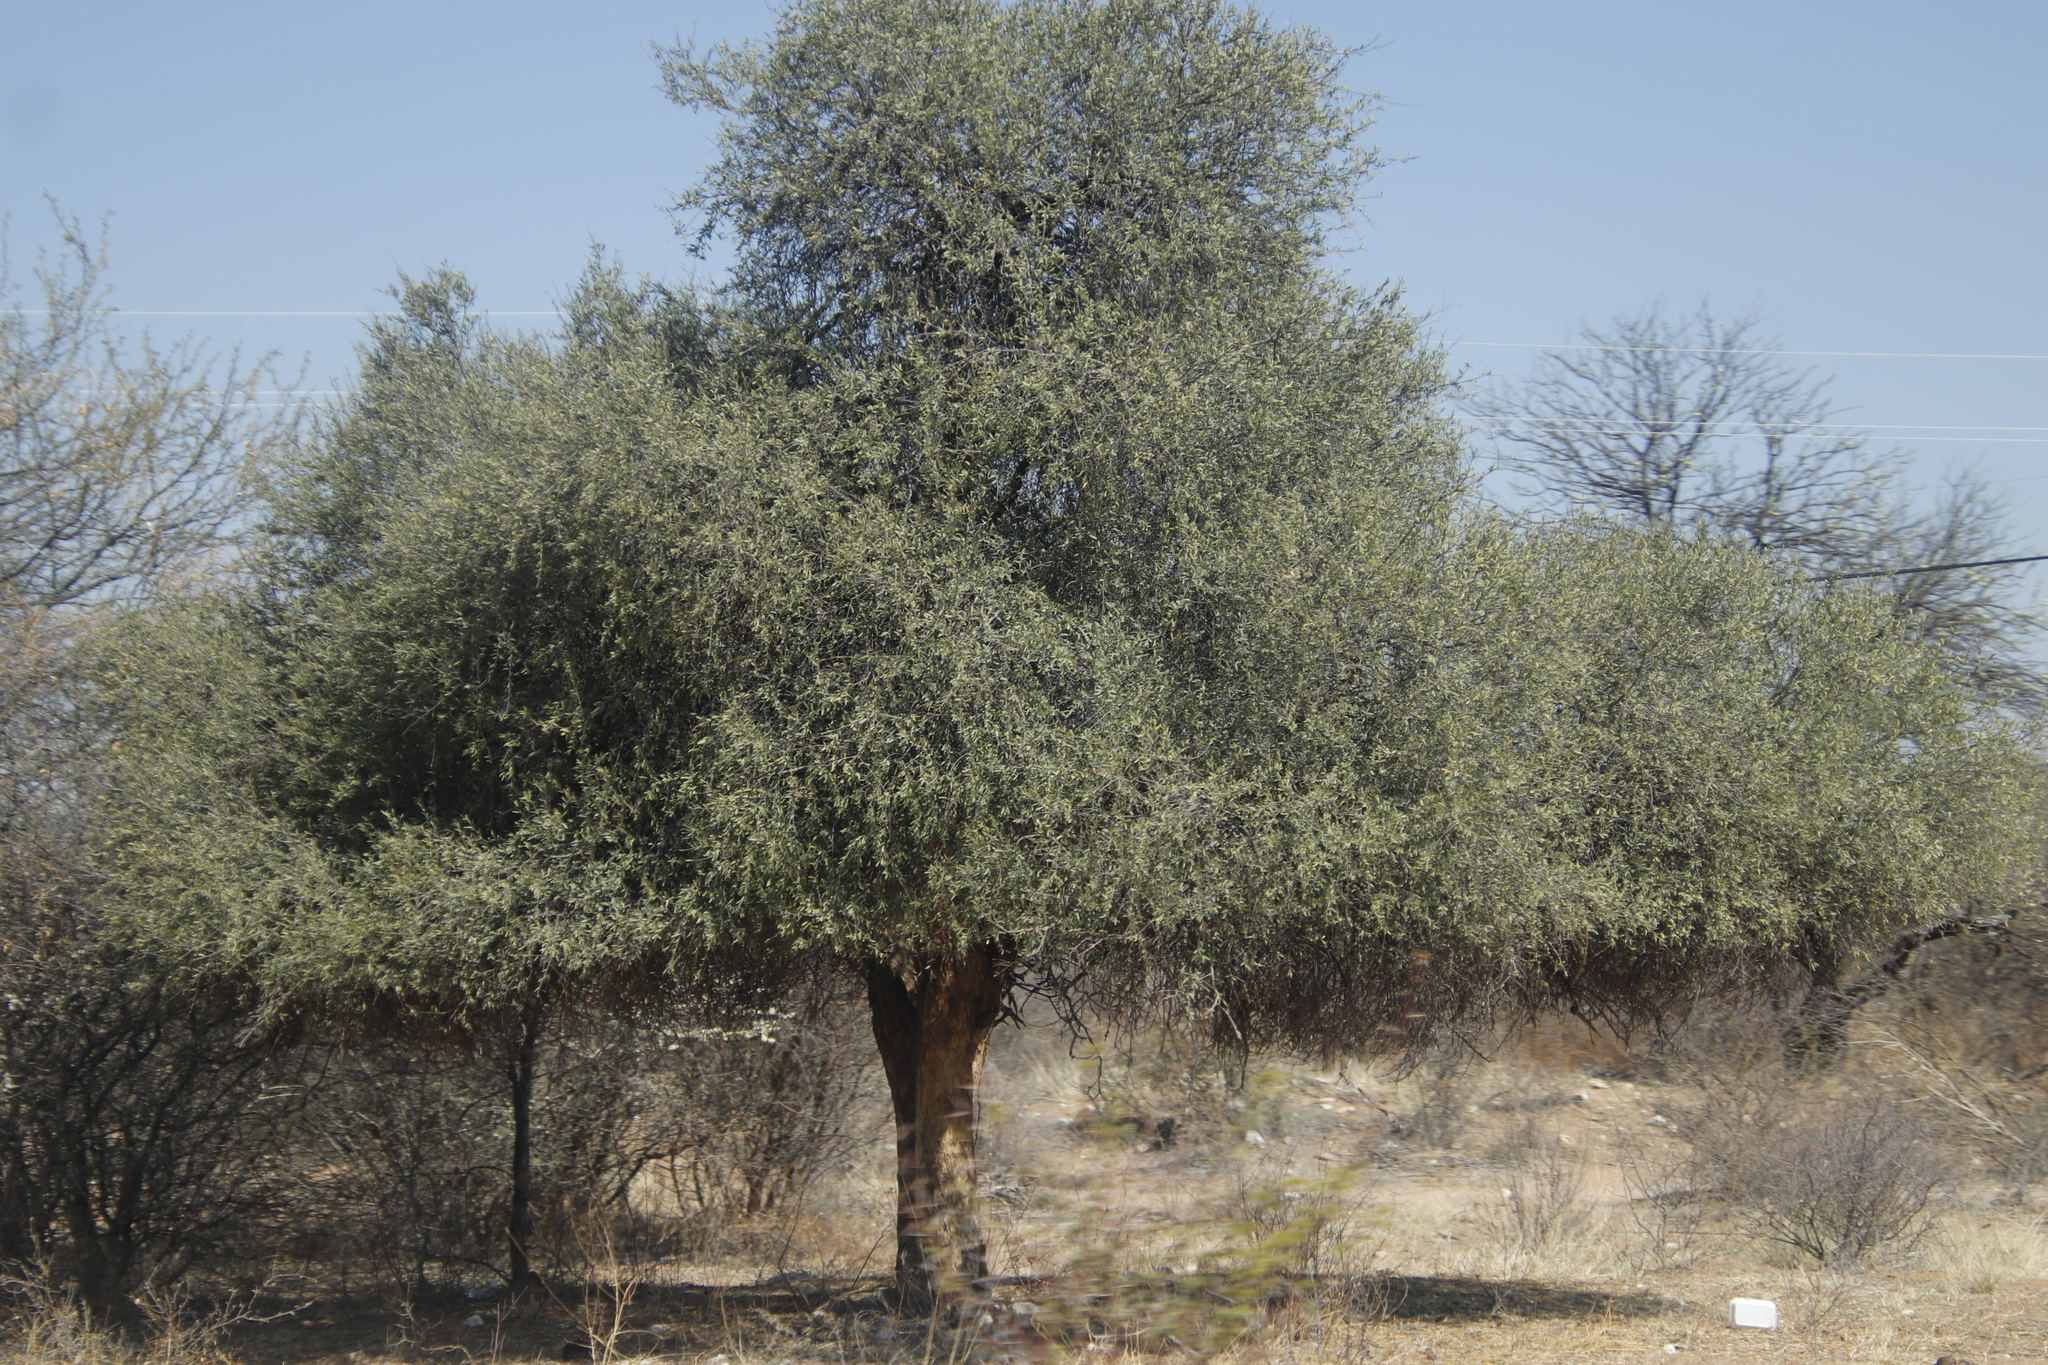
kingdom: Plantae
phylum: Tracheophyta
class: Magnoliopsida
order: Brassicales
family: Capparaceae
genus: Boscia
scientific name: Boscia albitrunca
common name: Caper bush
